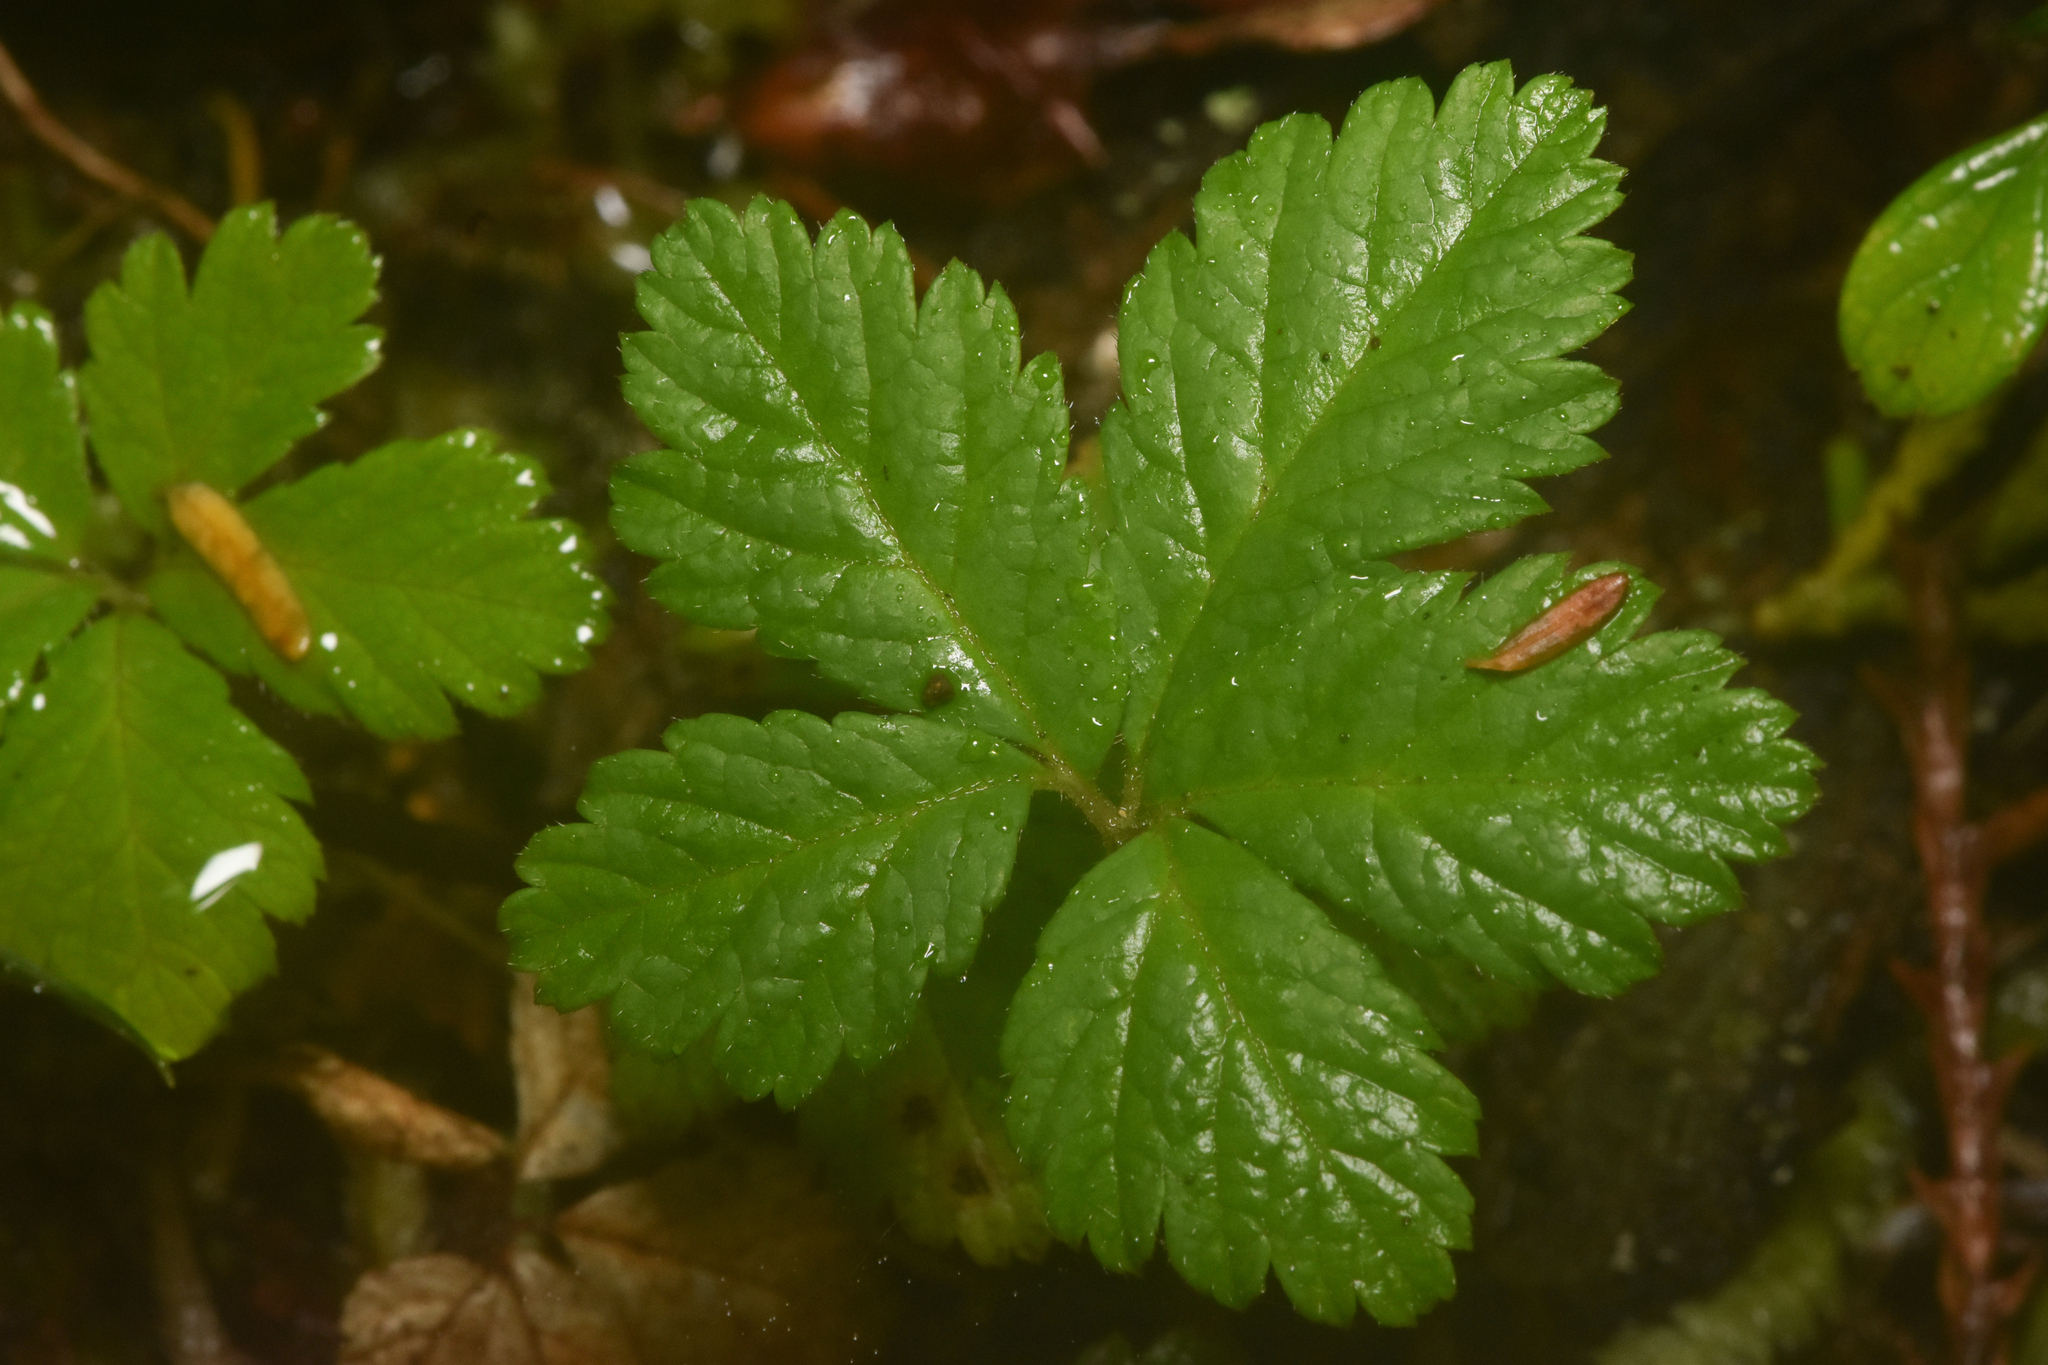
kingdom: Plantae
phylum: Tracheophyta
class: Magnoliopsida
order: Rosales
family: Rosaceae
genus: Rubus
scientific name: Rubus pedatus
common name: Creeping raspberry
